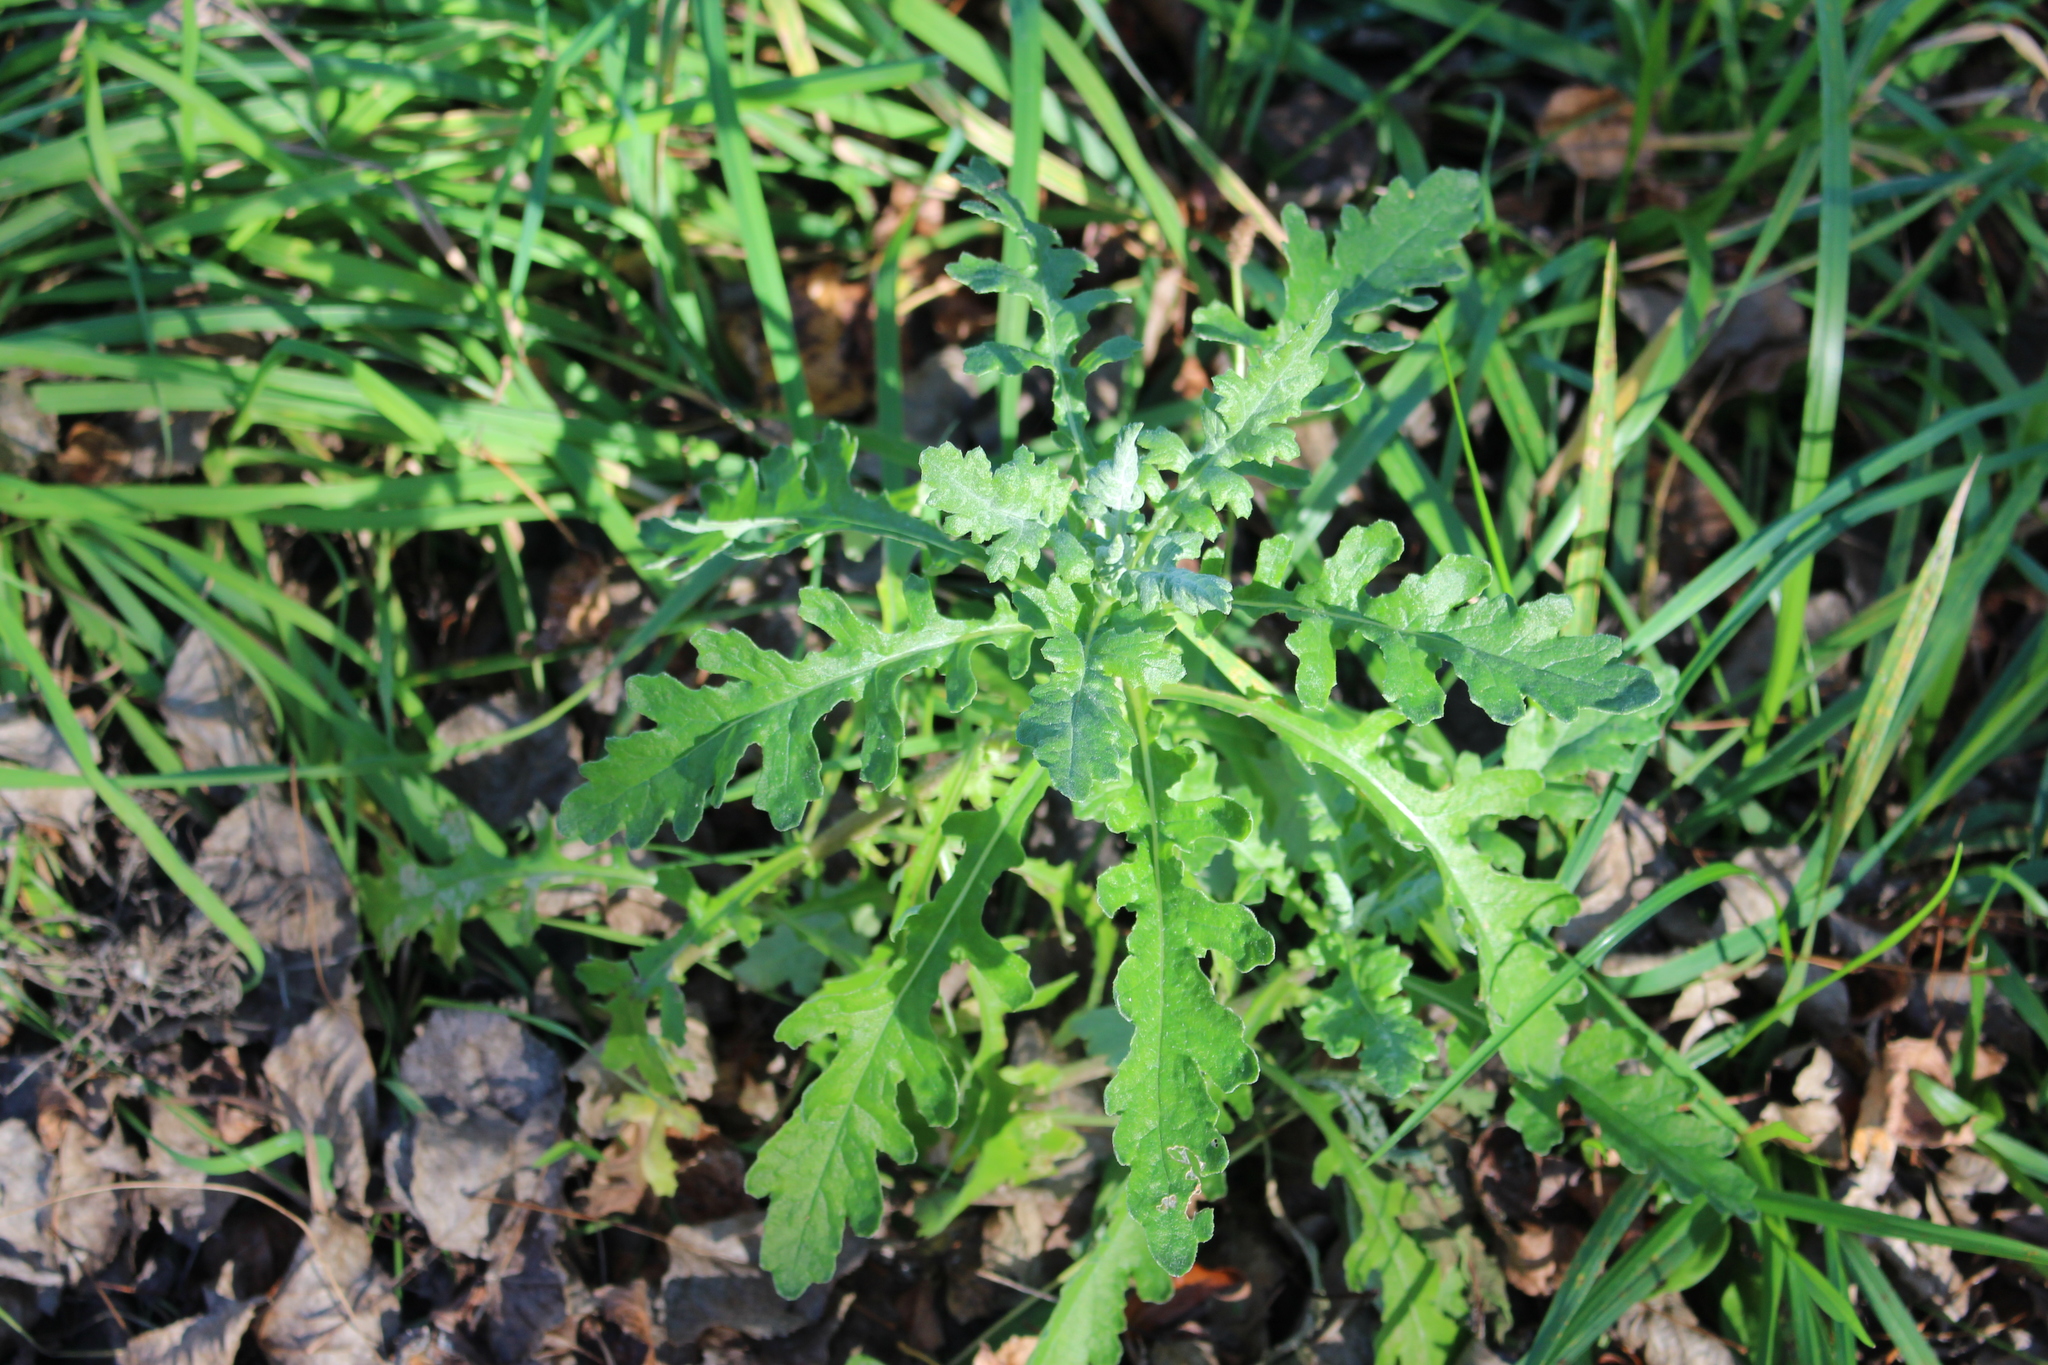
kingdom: Plantae
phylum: Tracheophyta
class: Magnoliopsida
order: Asterales
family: Asteraceae
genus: Senecio
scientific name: Senecio glomeratus
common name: Cutleaf burnweed
